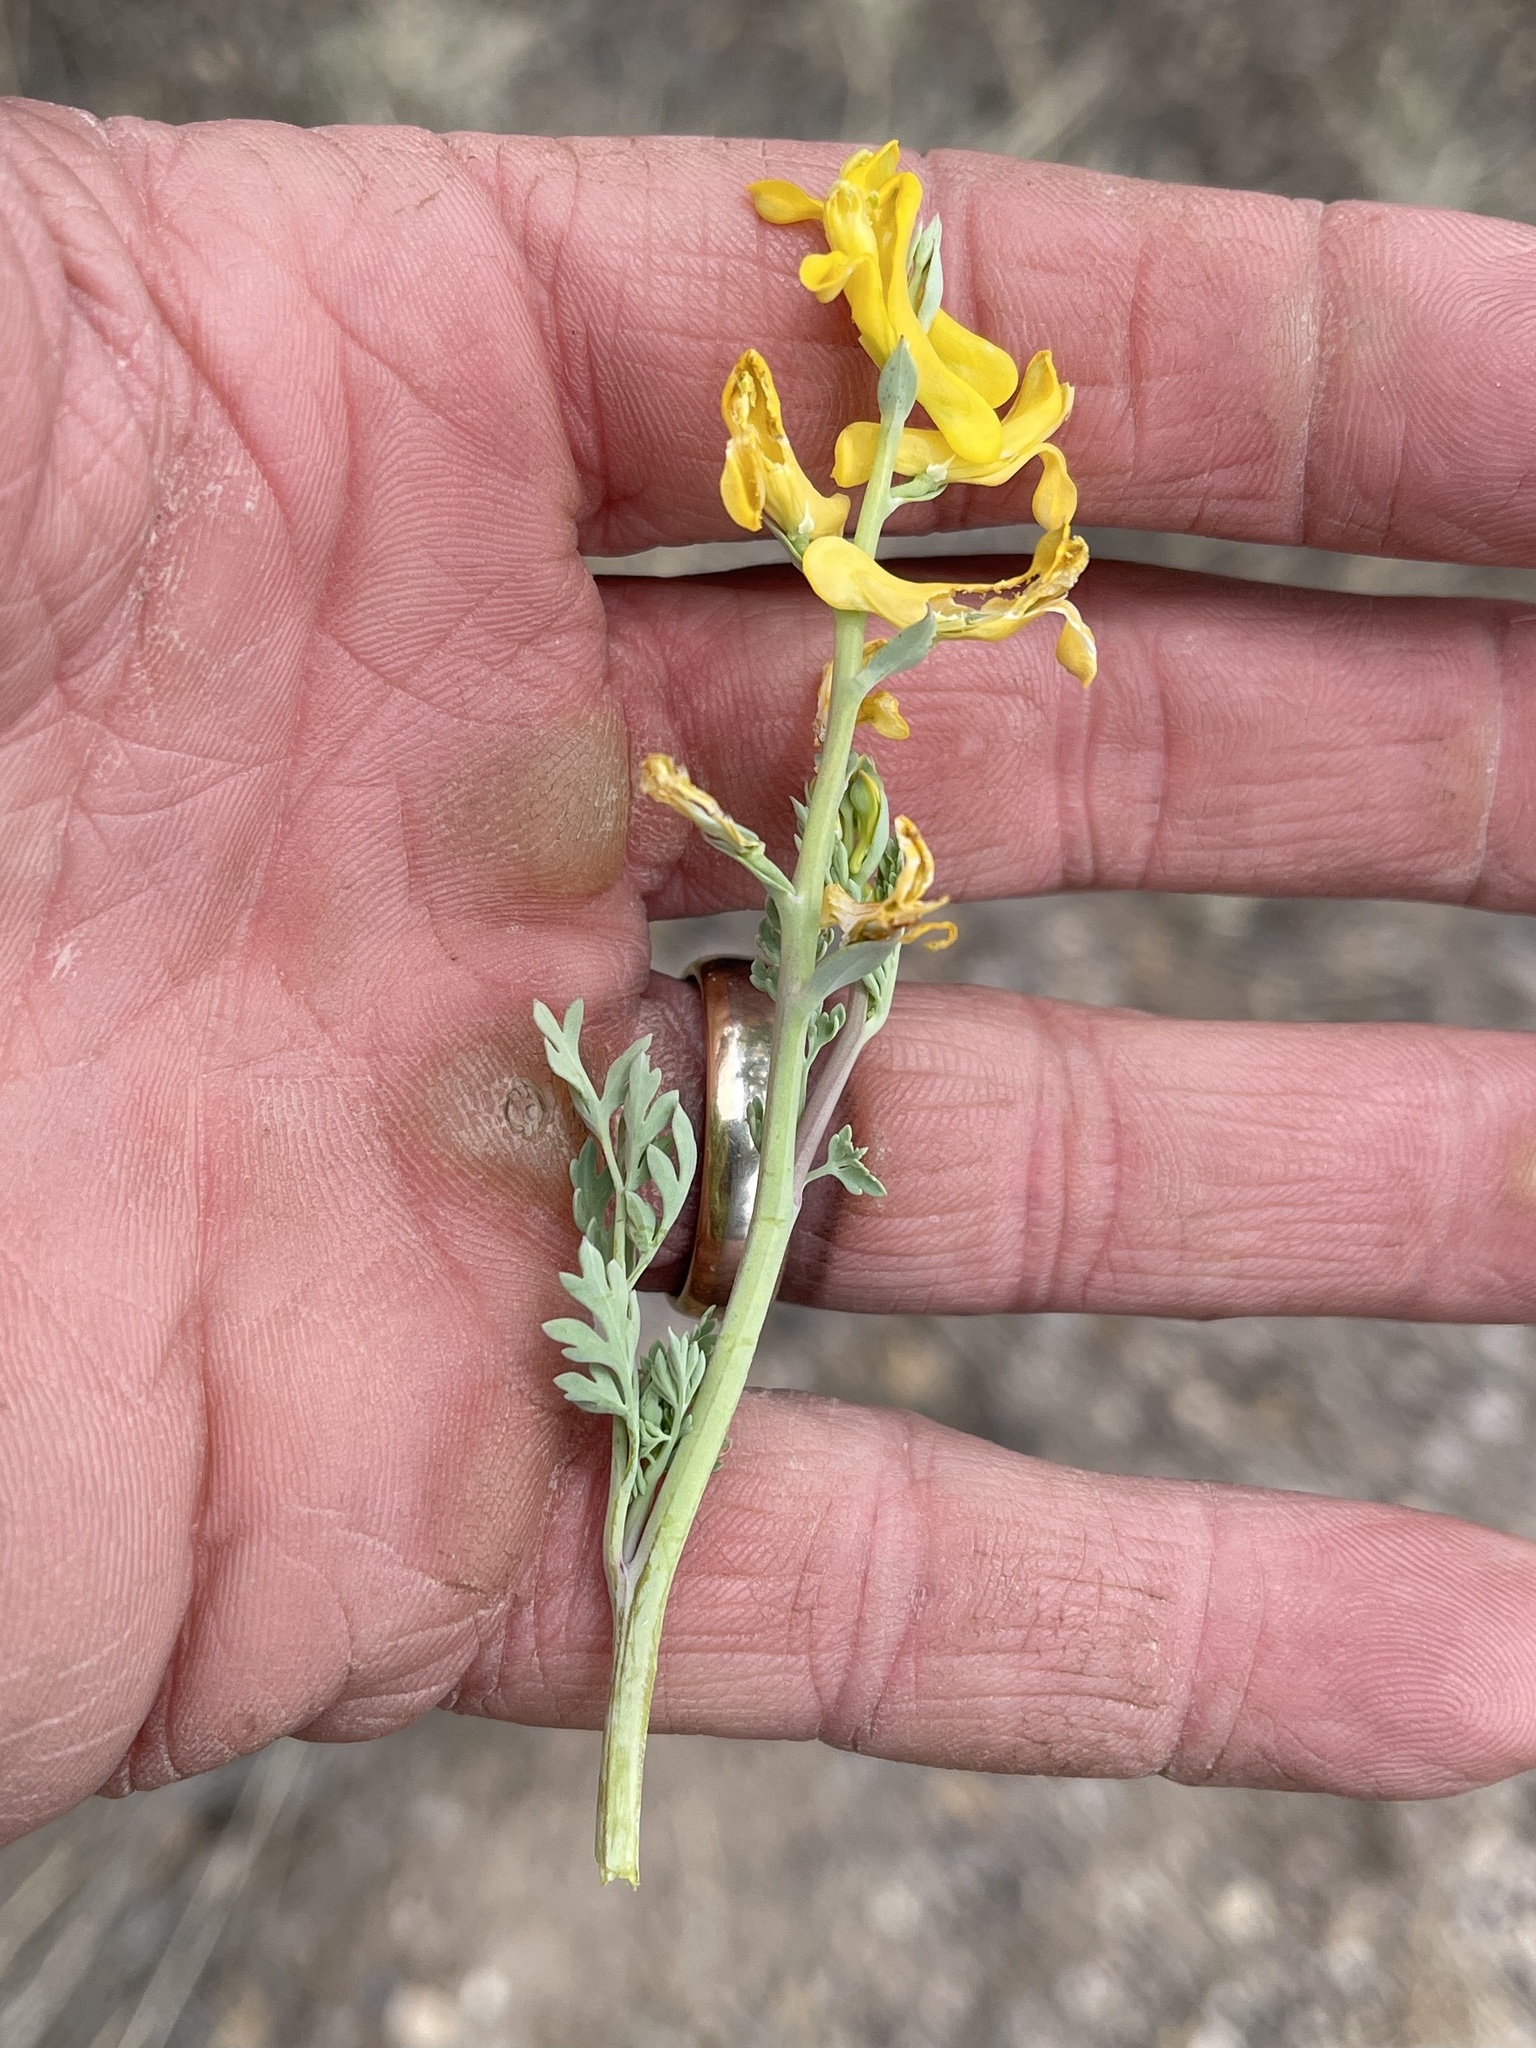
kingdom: Plantae
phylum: Tracheophyta
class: Magnoliopsida
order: Ranunculales
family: Papaveraceae
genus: Corydalis
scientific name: Corydalis aurea
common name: Golden corydalis
